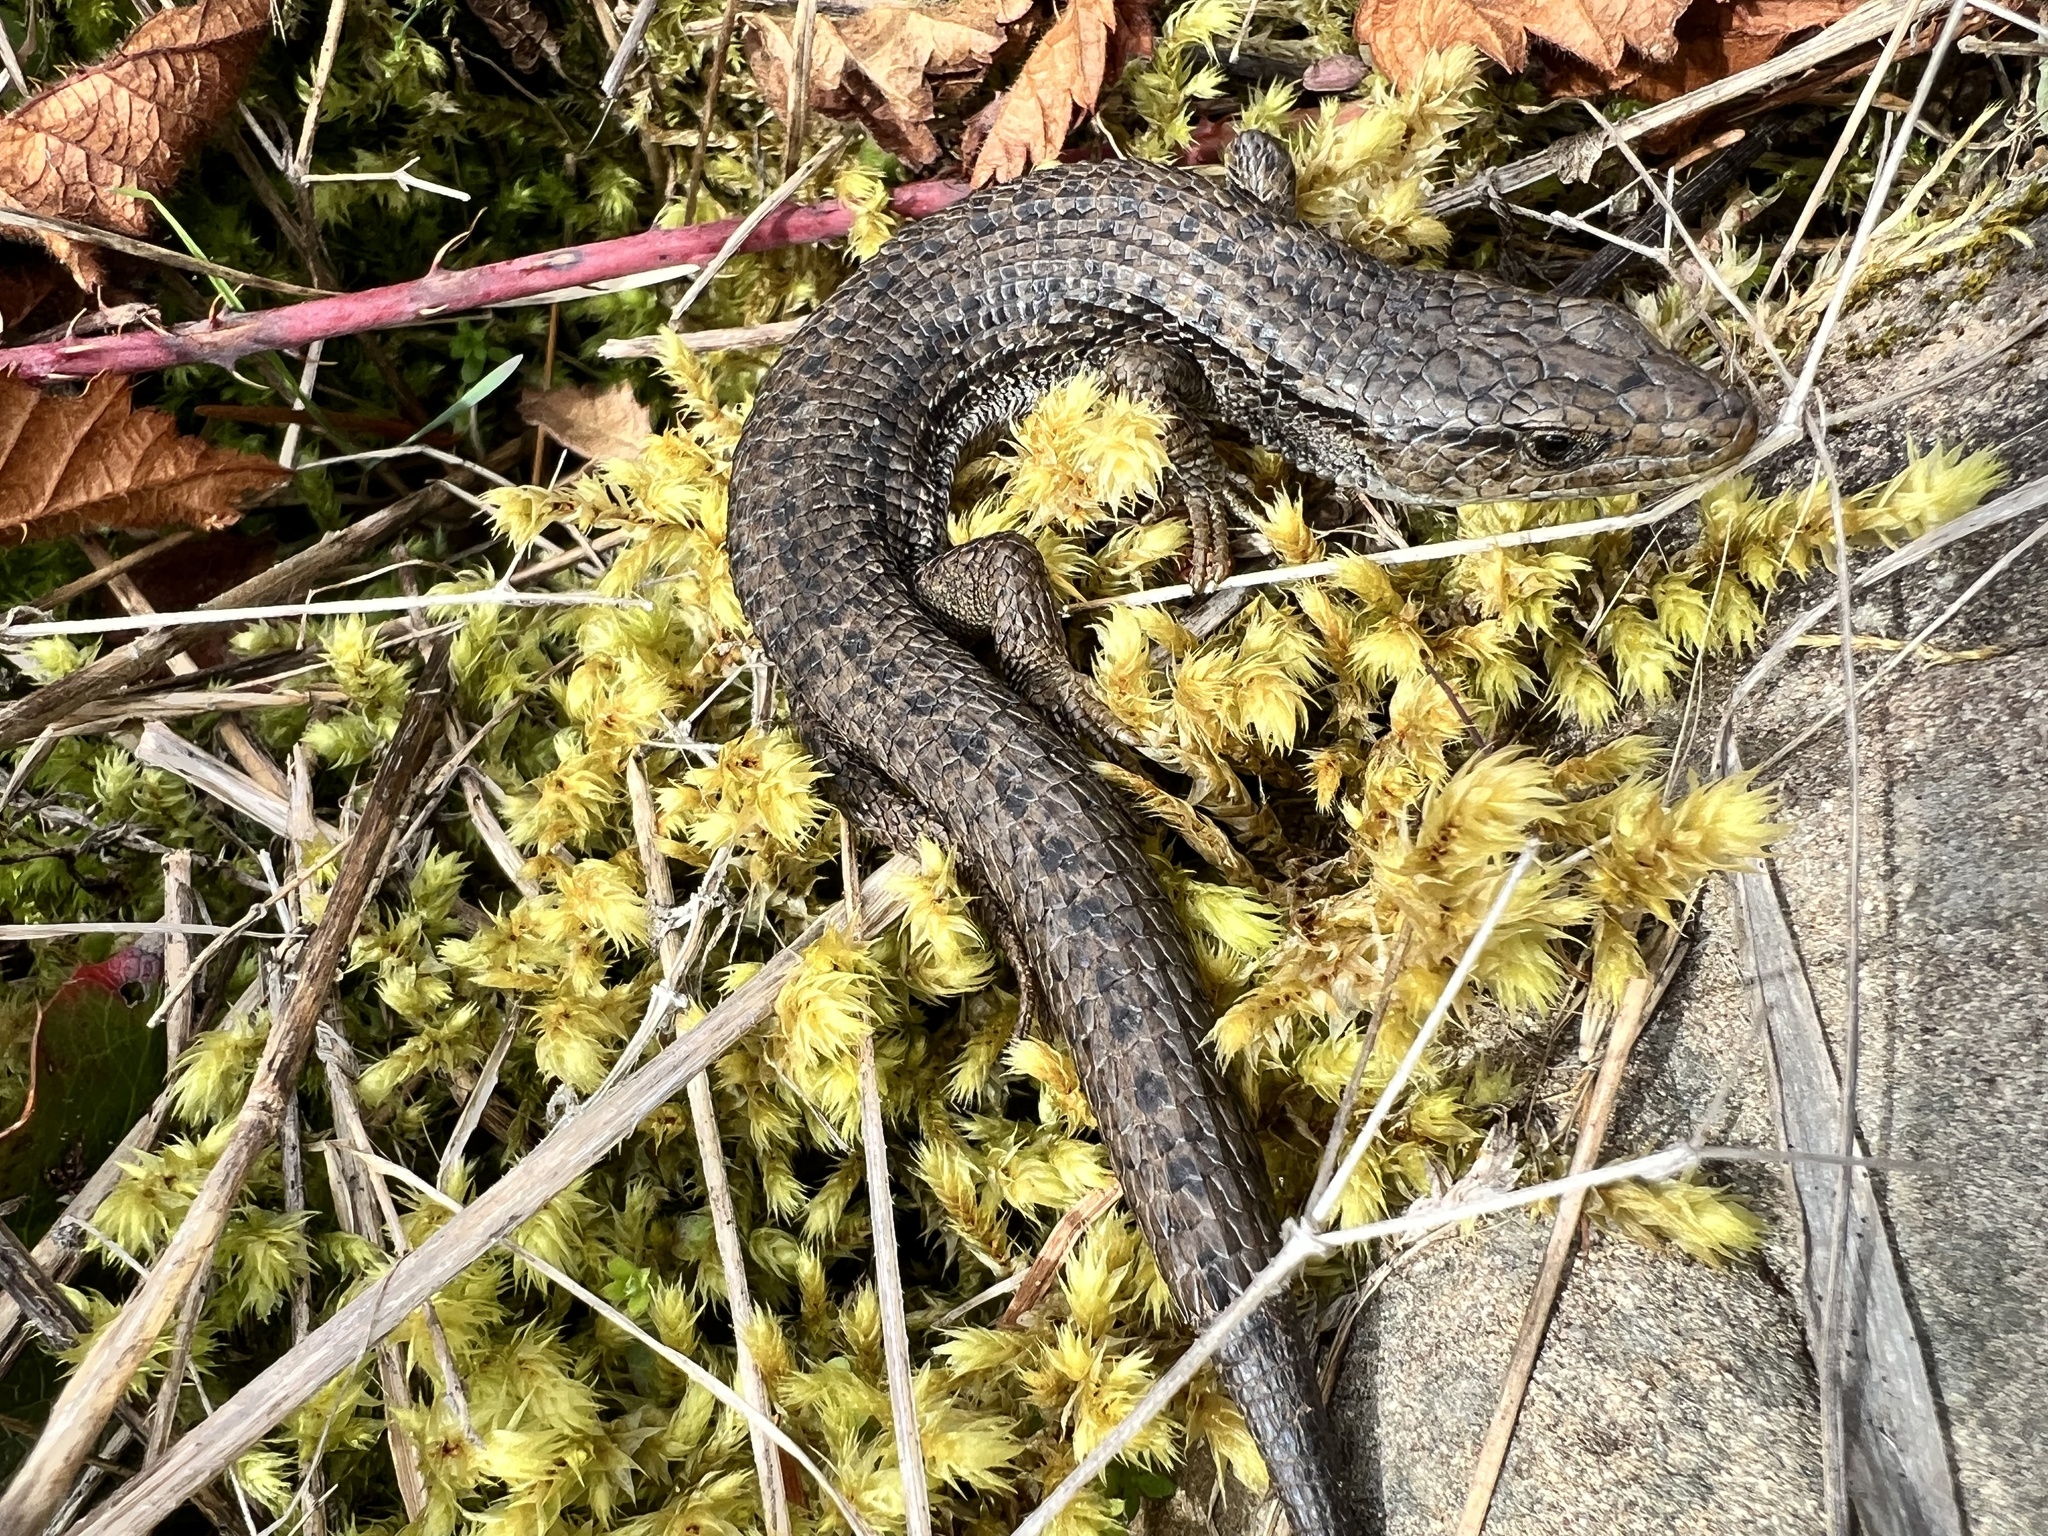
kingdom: Animalia
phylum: Chordata
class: Squamata
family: Anguidae
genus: Elgaria
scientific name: Elgaria coerulea
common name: Northern alligator lizard
